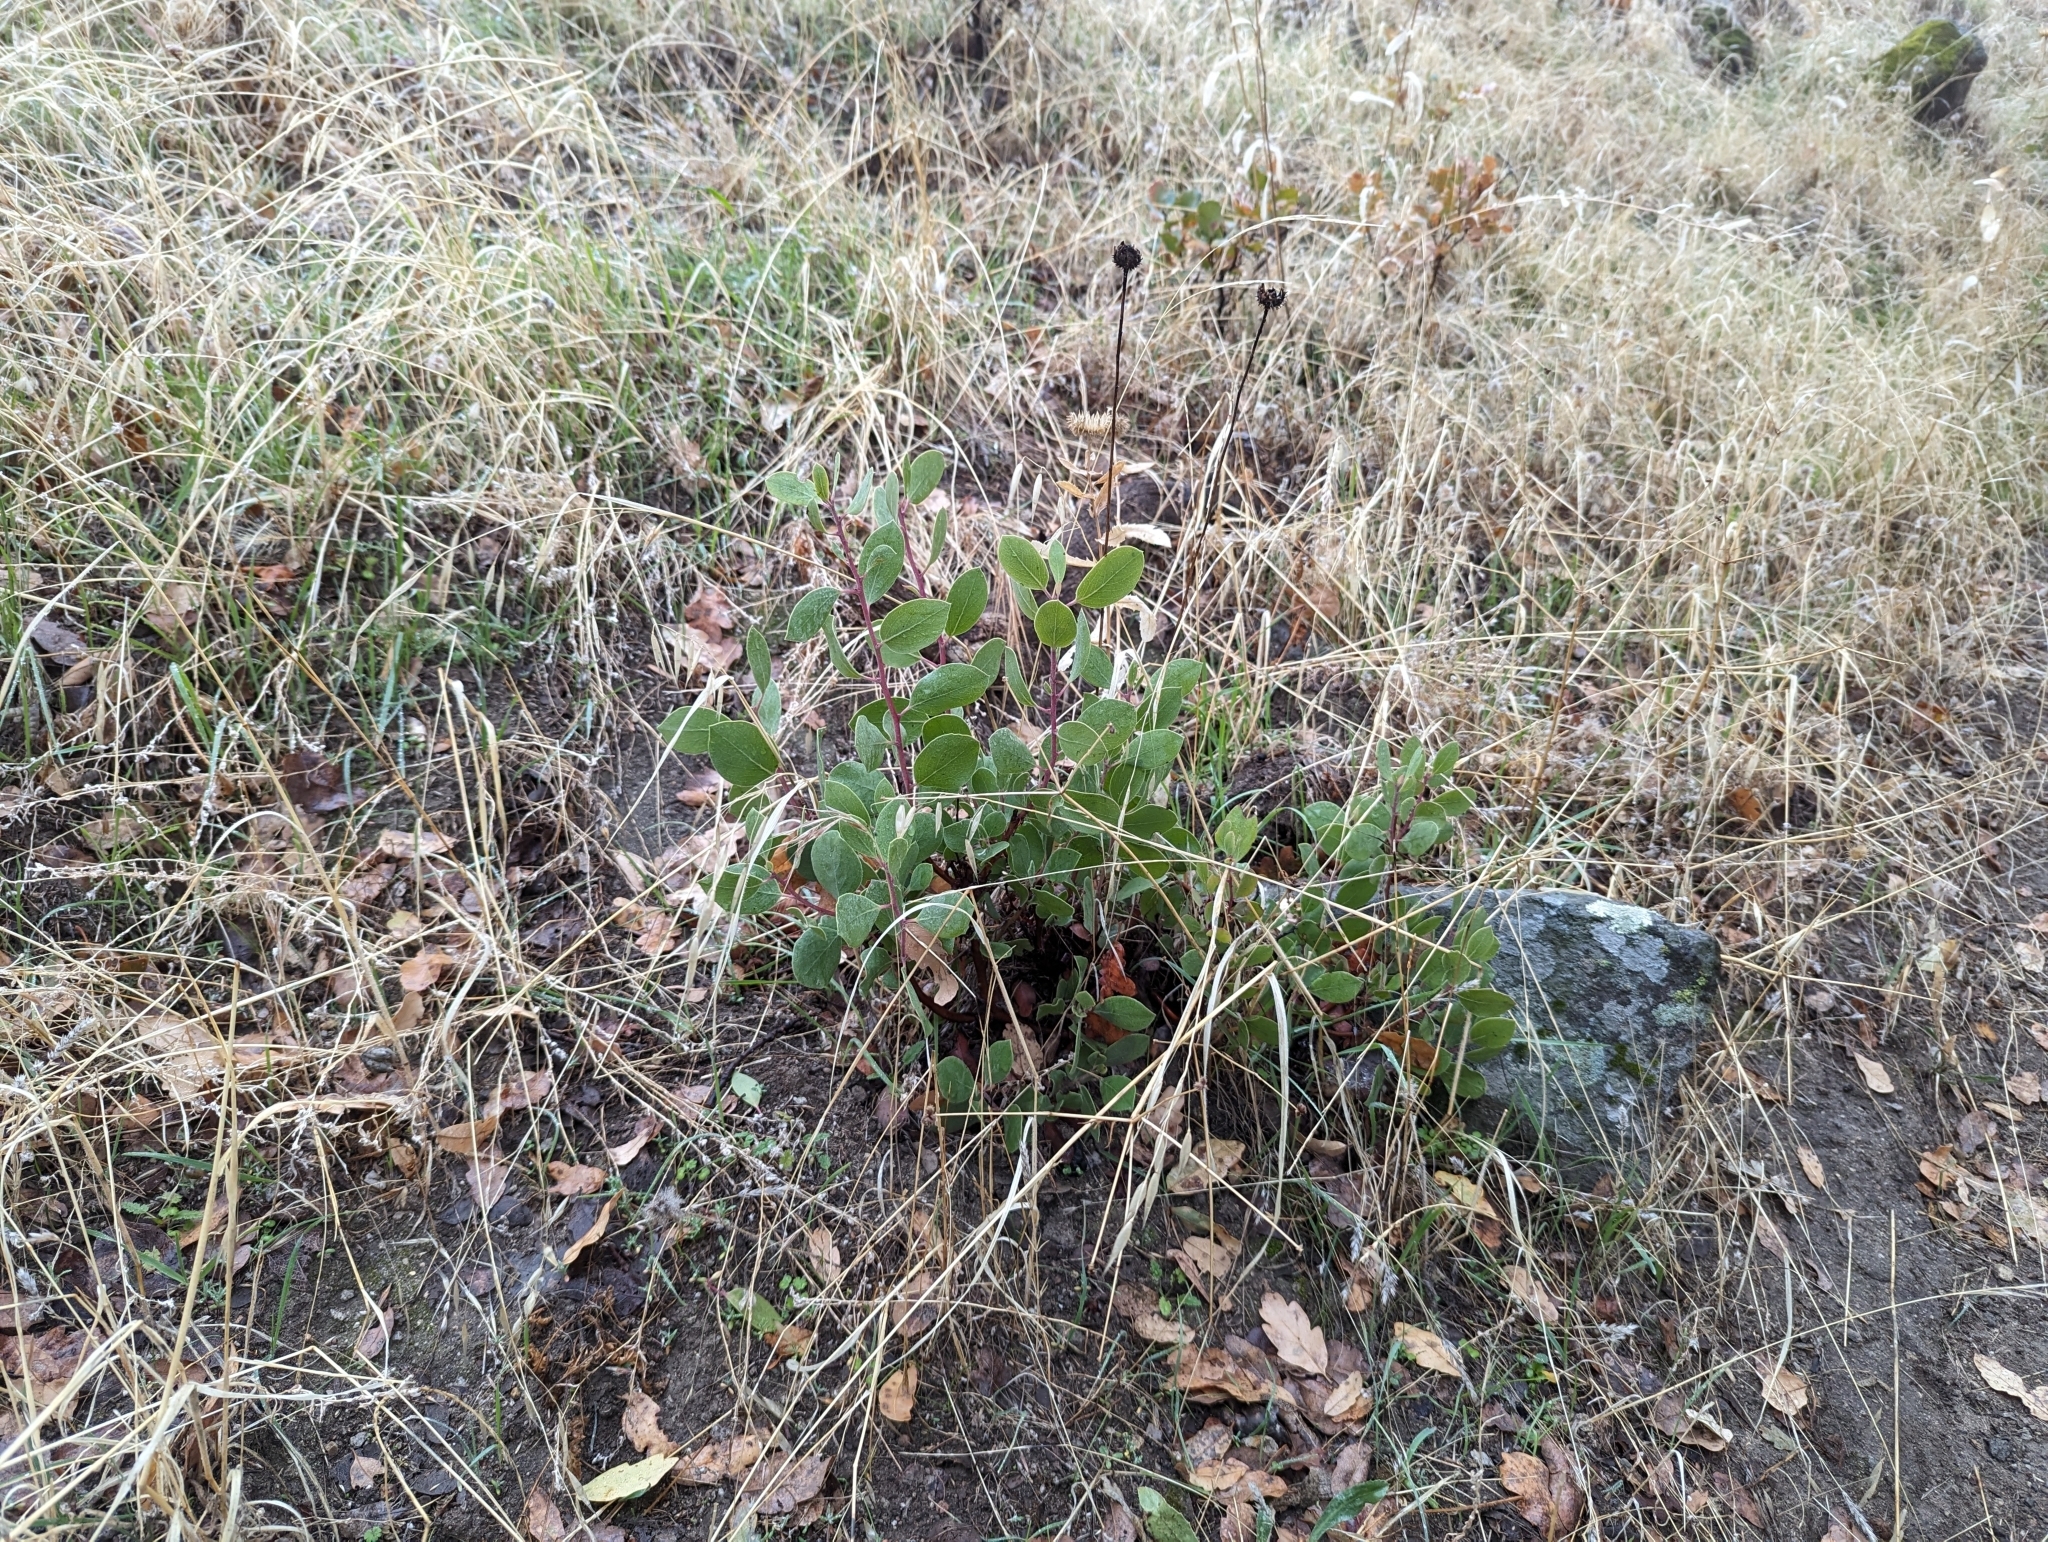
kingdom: Plantae
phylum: Tracheophyta
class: Magnoliopsida
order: Ericales
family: Ericaceae
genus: Arctostaphylos
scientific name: Arctostaphylos manzanita
